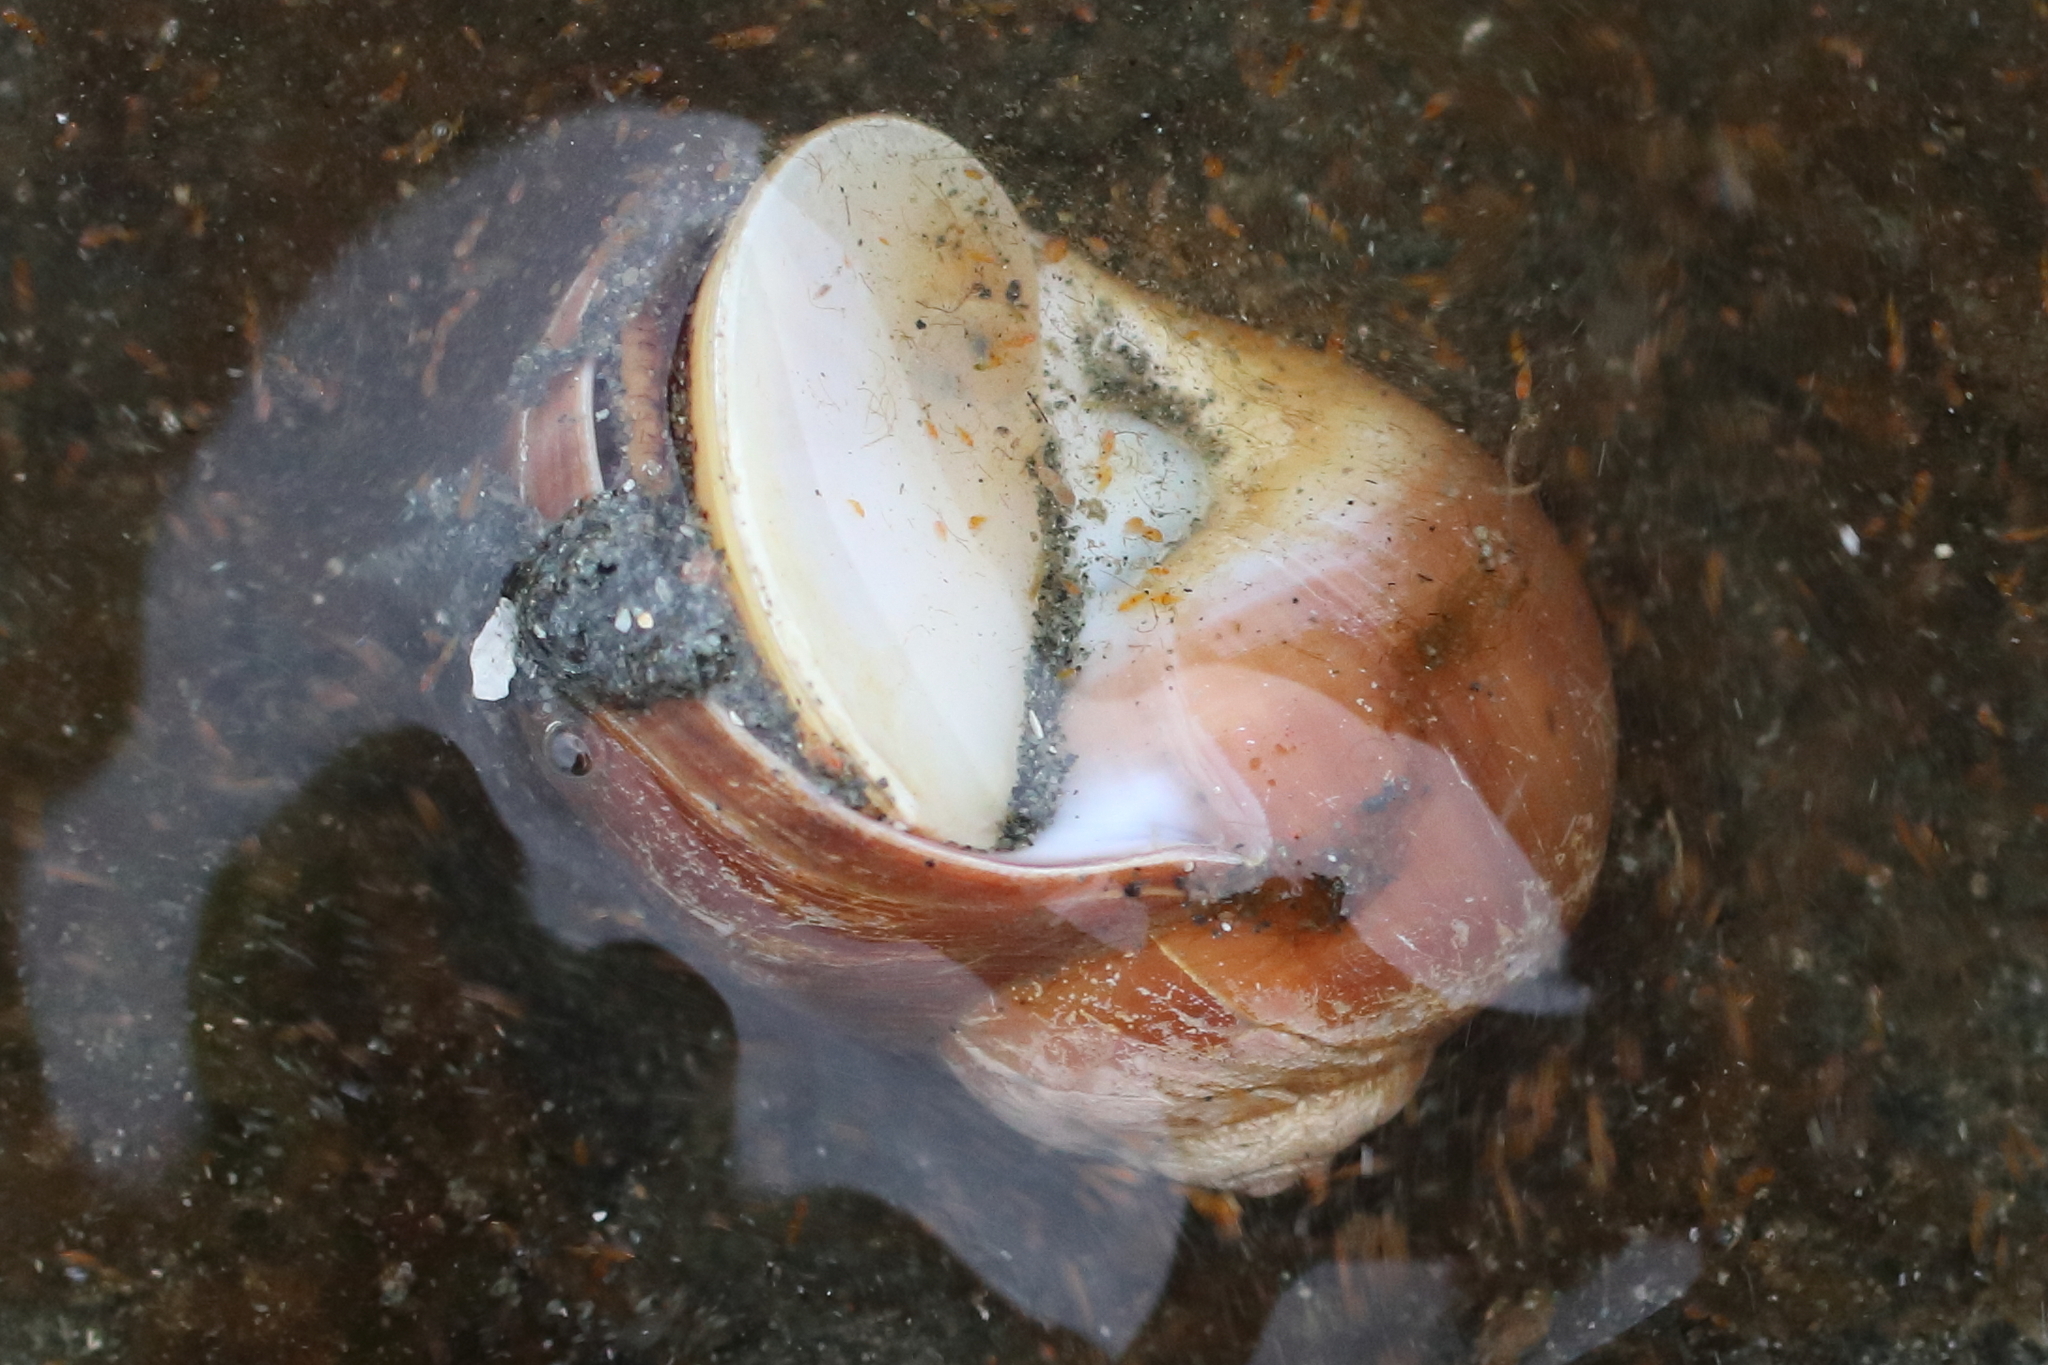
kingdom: Animalia
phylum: Mollusca
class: Gastropoda
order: Littorinimorpha
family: Naticidae
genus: Cryptonatica
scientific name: Cryptonatica aleutica
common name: Aleutian moon snail
